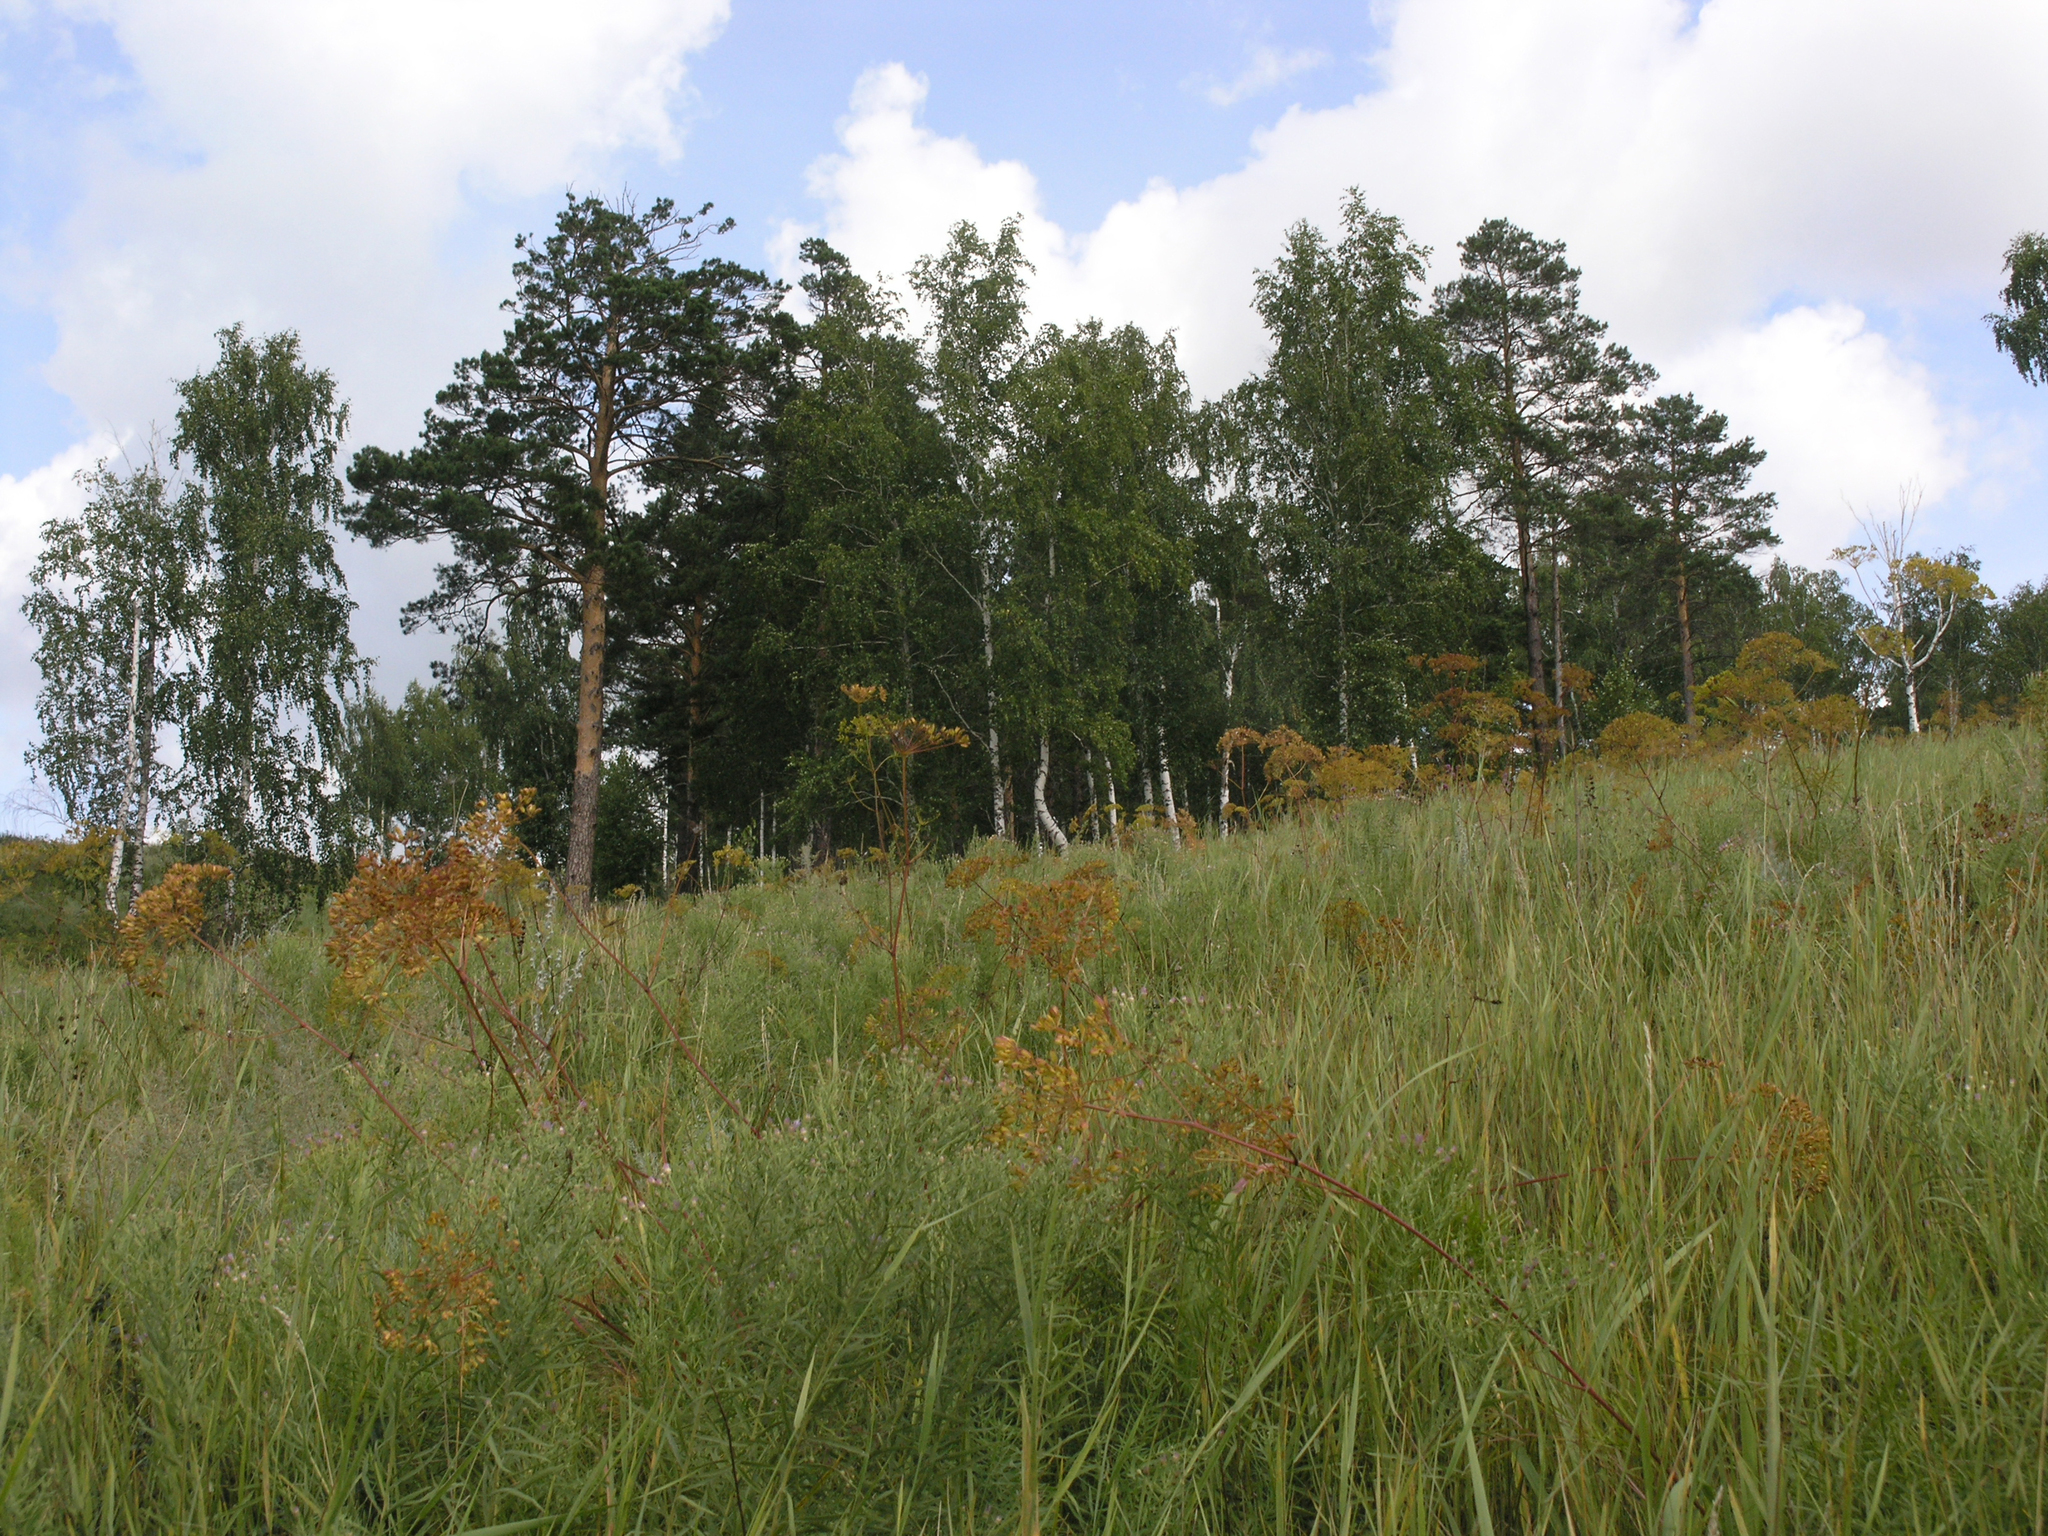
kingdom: Plantae
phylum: Tracheophyta
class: Magnoliopsida
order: Fagales
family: Betulaceae
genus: Betula
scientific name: Betula pendula
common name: Silver birch
